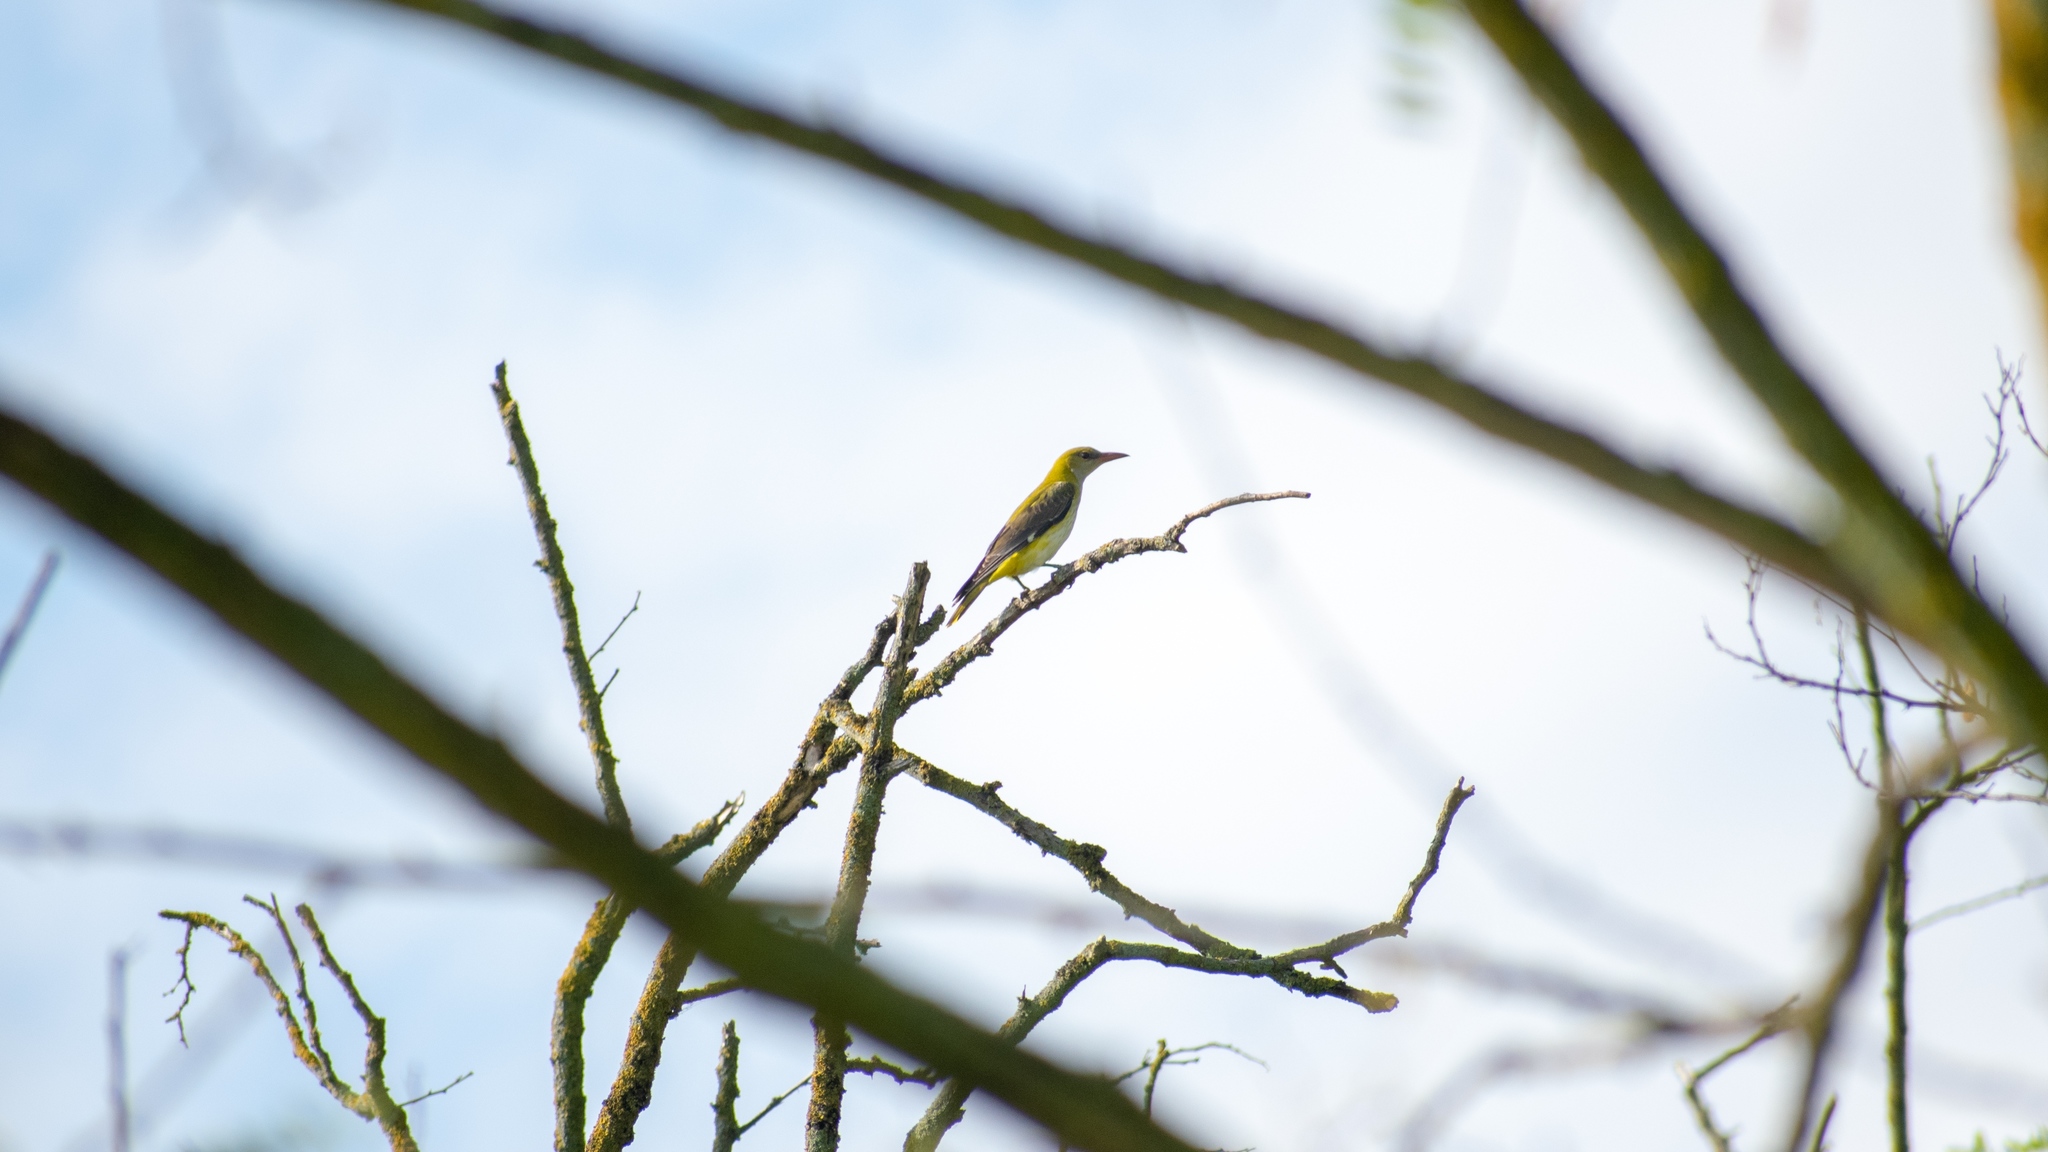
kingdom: Animalia
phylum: Chordata
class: Aves
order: Passeriformes
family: Oriolidae
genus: Oriolus
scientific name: Oriolus oriolus
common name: Eurasian golden oriole
